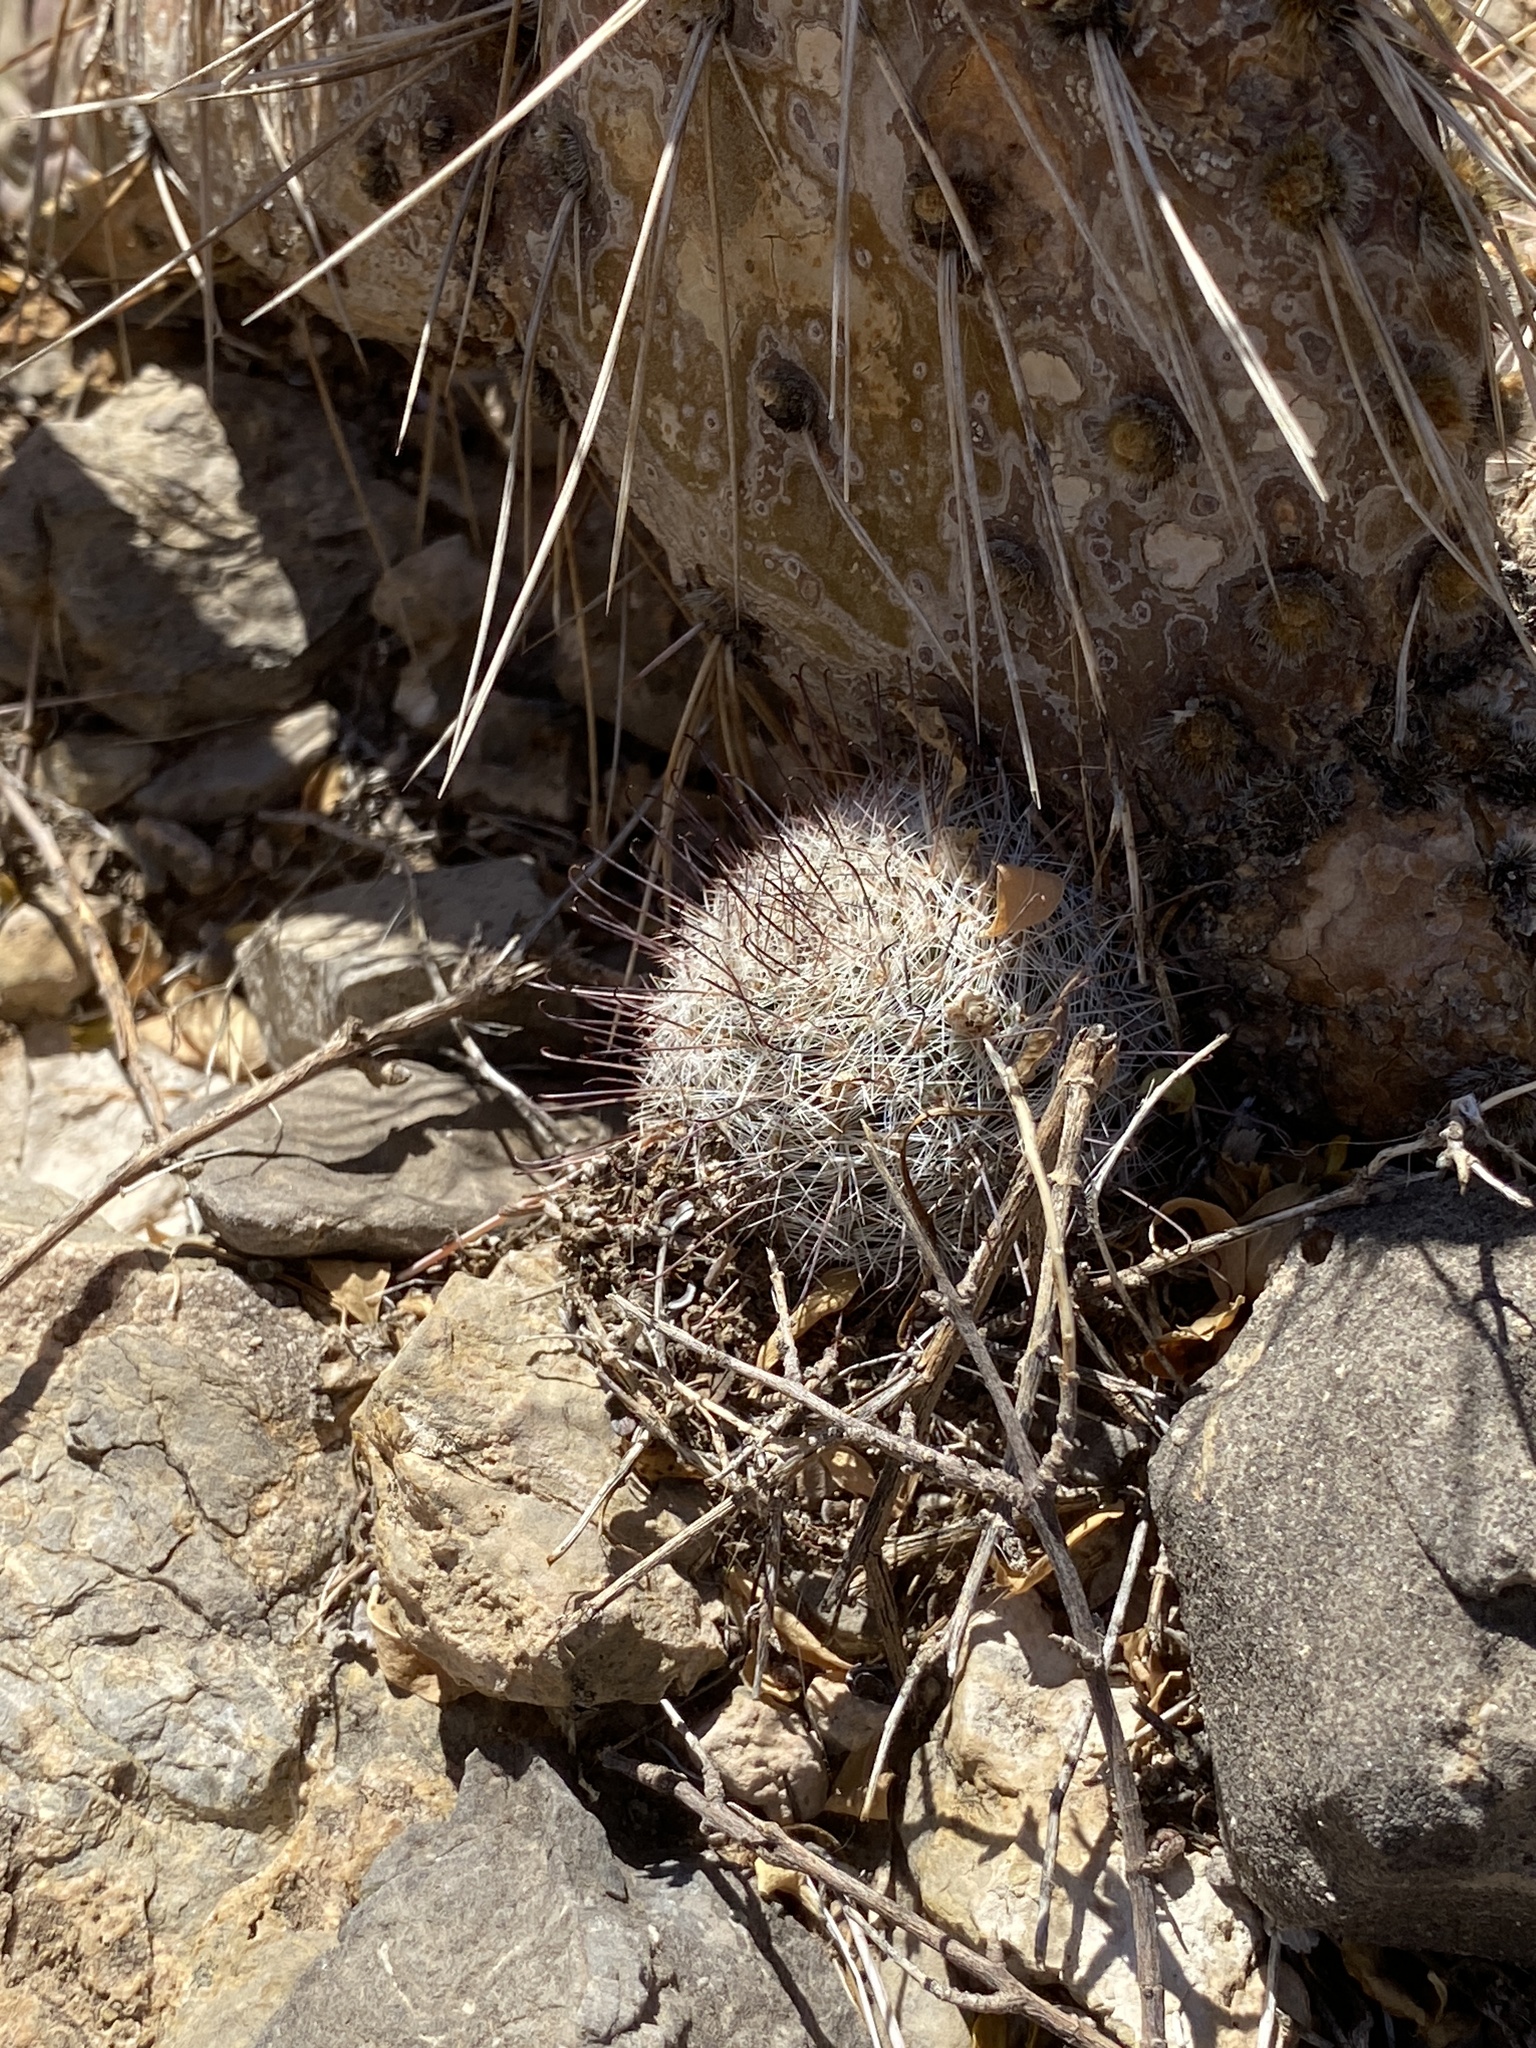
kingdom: Plantae
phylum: Tracheophyta
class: Magnoliopsida
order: Caryophyllales
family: Cactaceae
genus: Cochemiea
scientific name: Cochemiea grahamii
